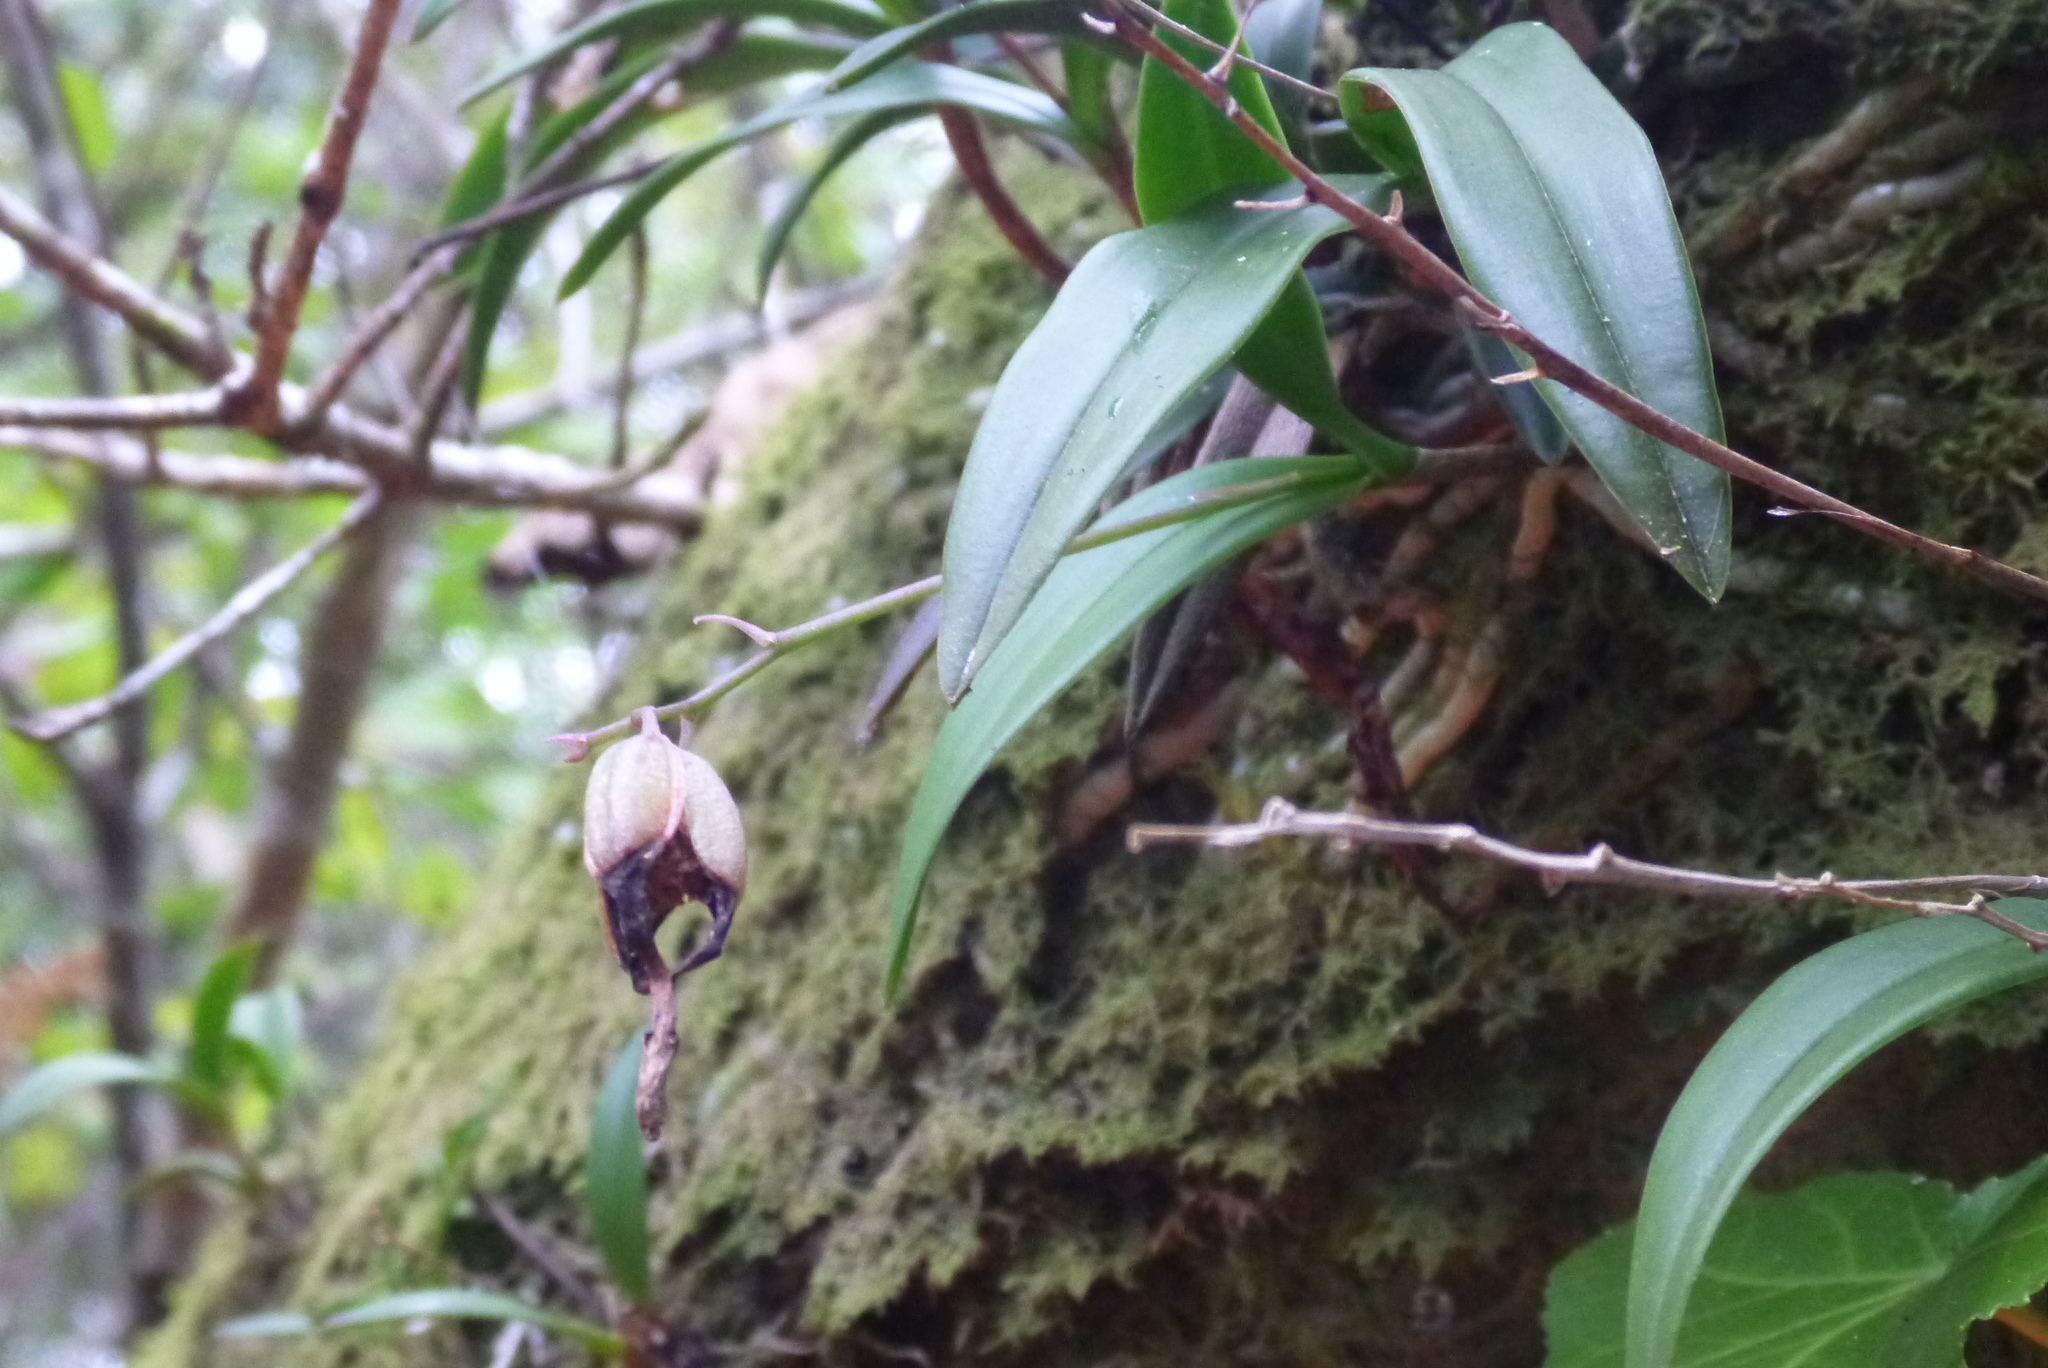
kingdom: Plantae
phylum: Tracheophyta
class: Liliopsida
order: Asparagales
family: Orchidaceae
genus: Epidendrum
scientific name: Epidendrum conopseum
